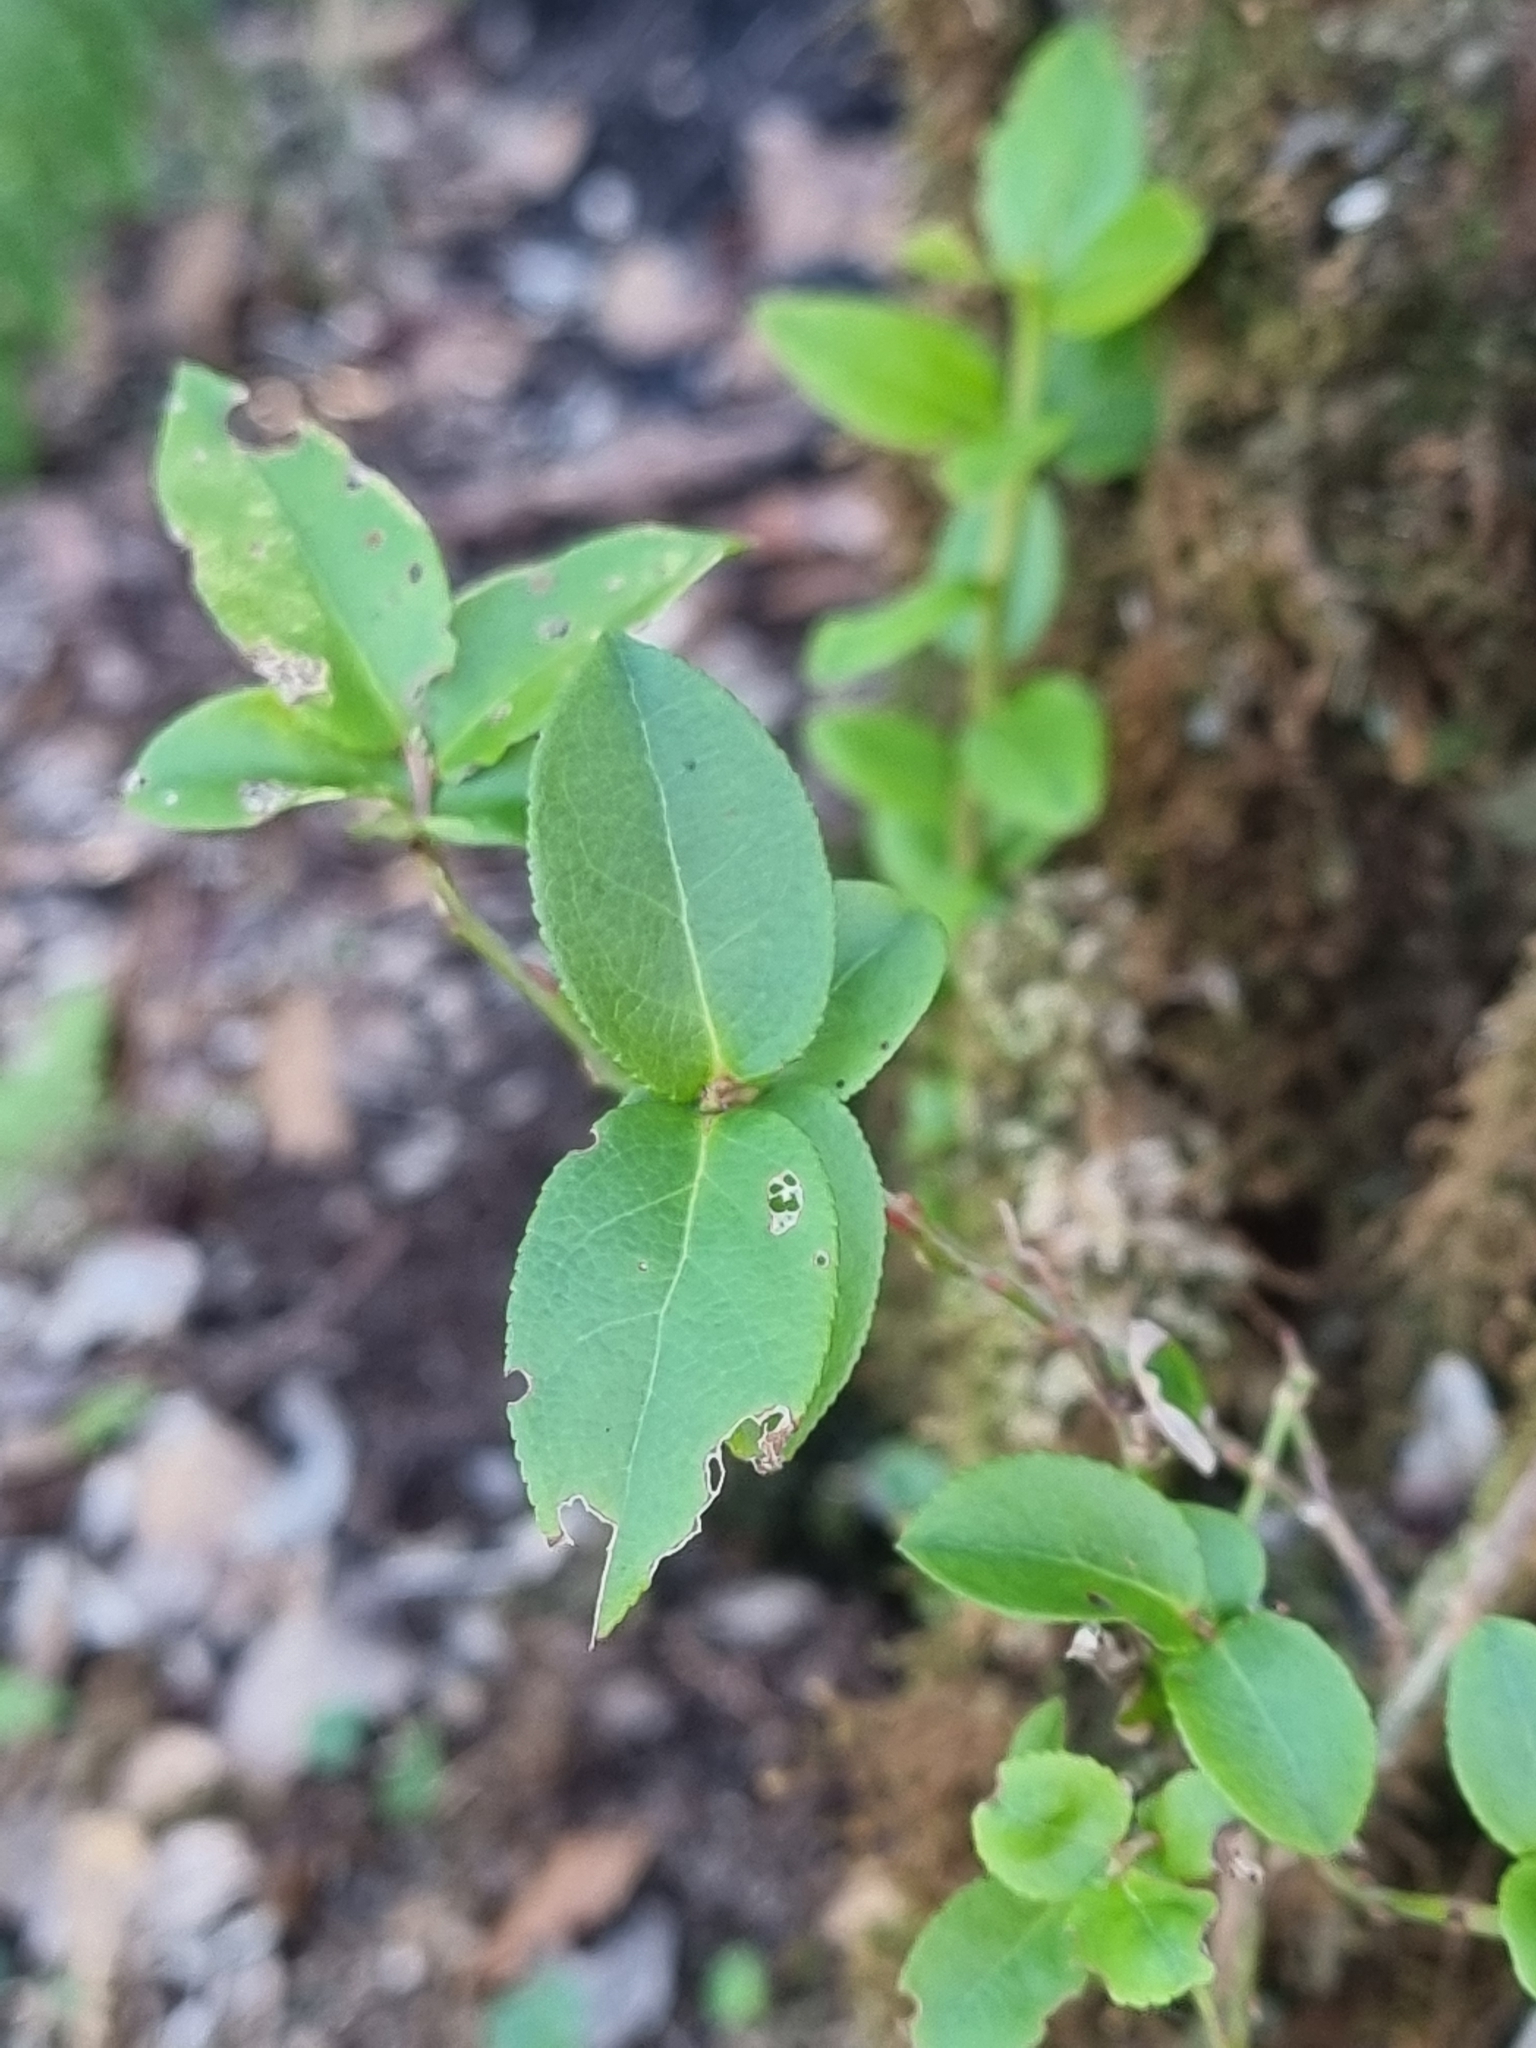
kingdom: Plantae
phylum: Tracheophyta
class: Magnoliopsida
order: Ericales
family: Ericaceae
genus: Vaccinium
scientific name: Vaccinium padifolium
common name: Madeiran blueberry
